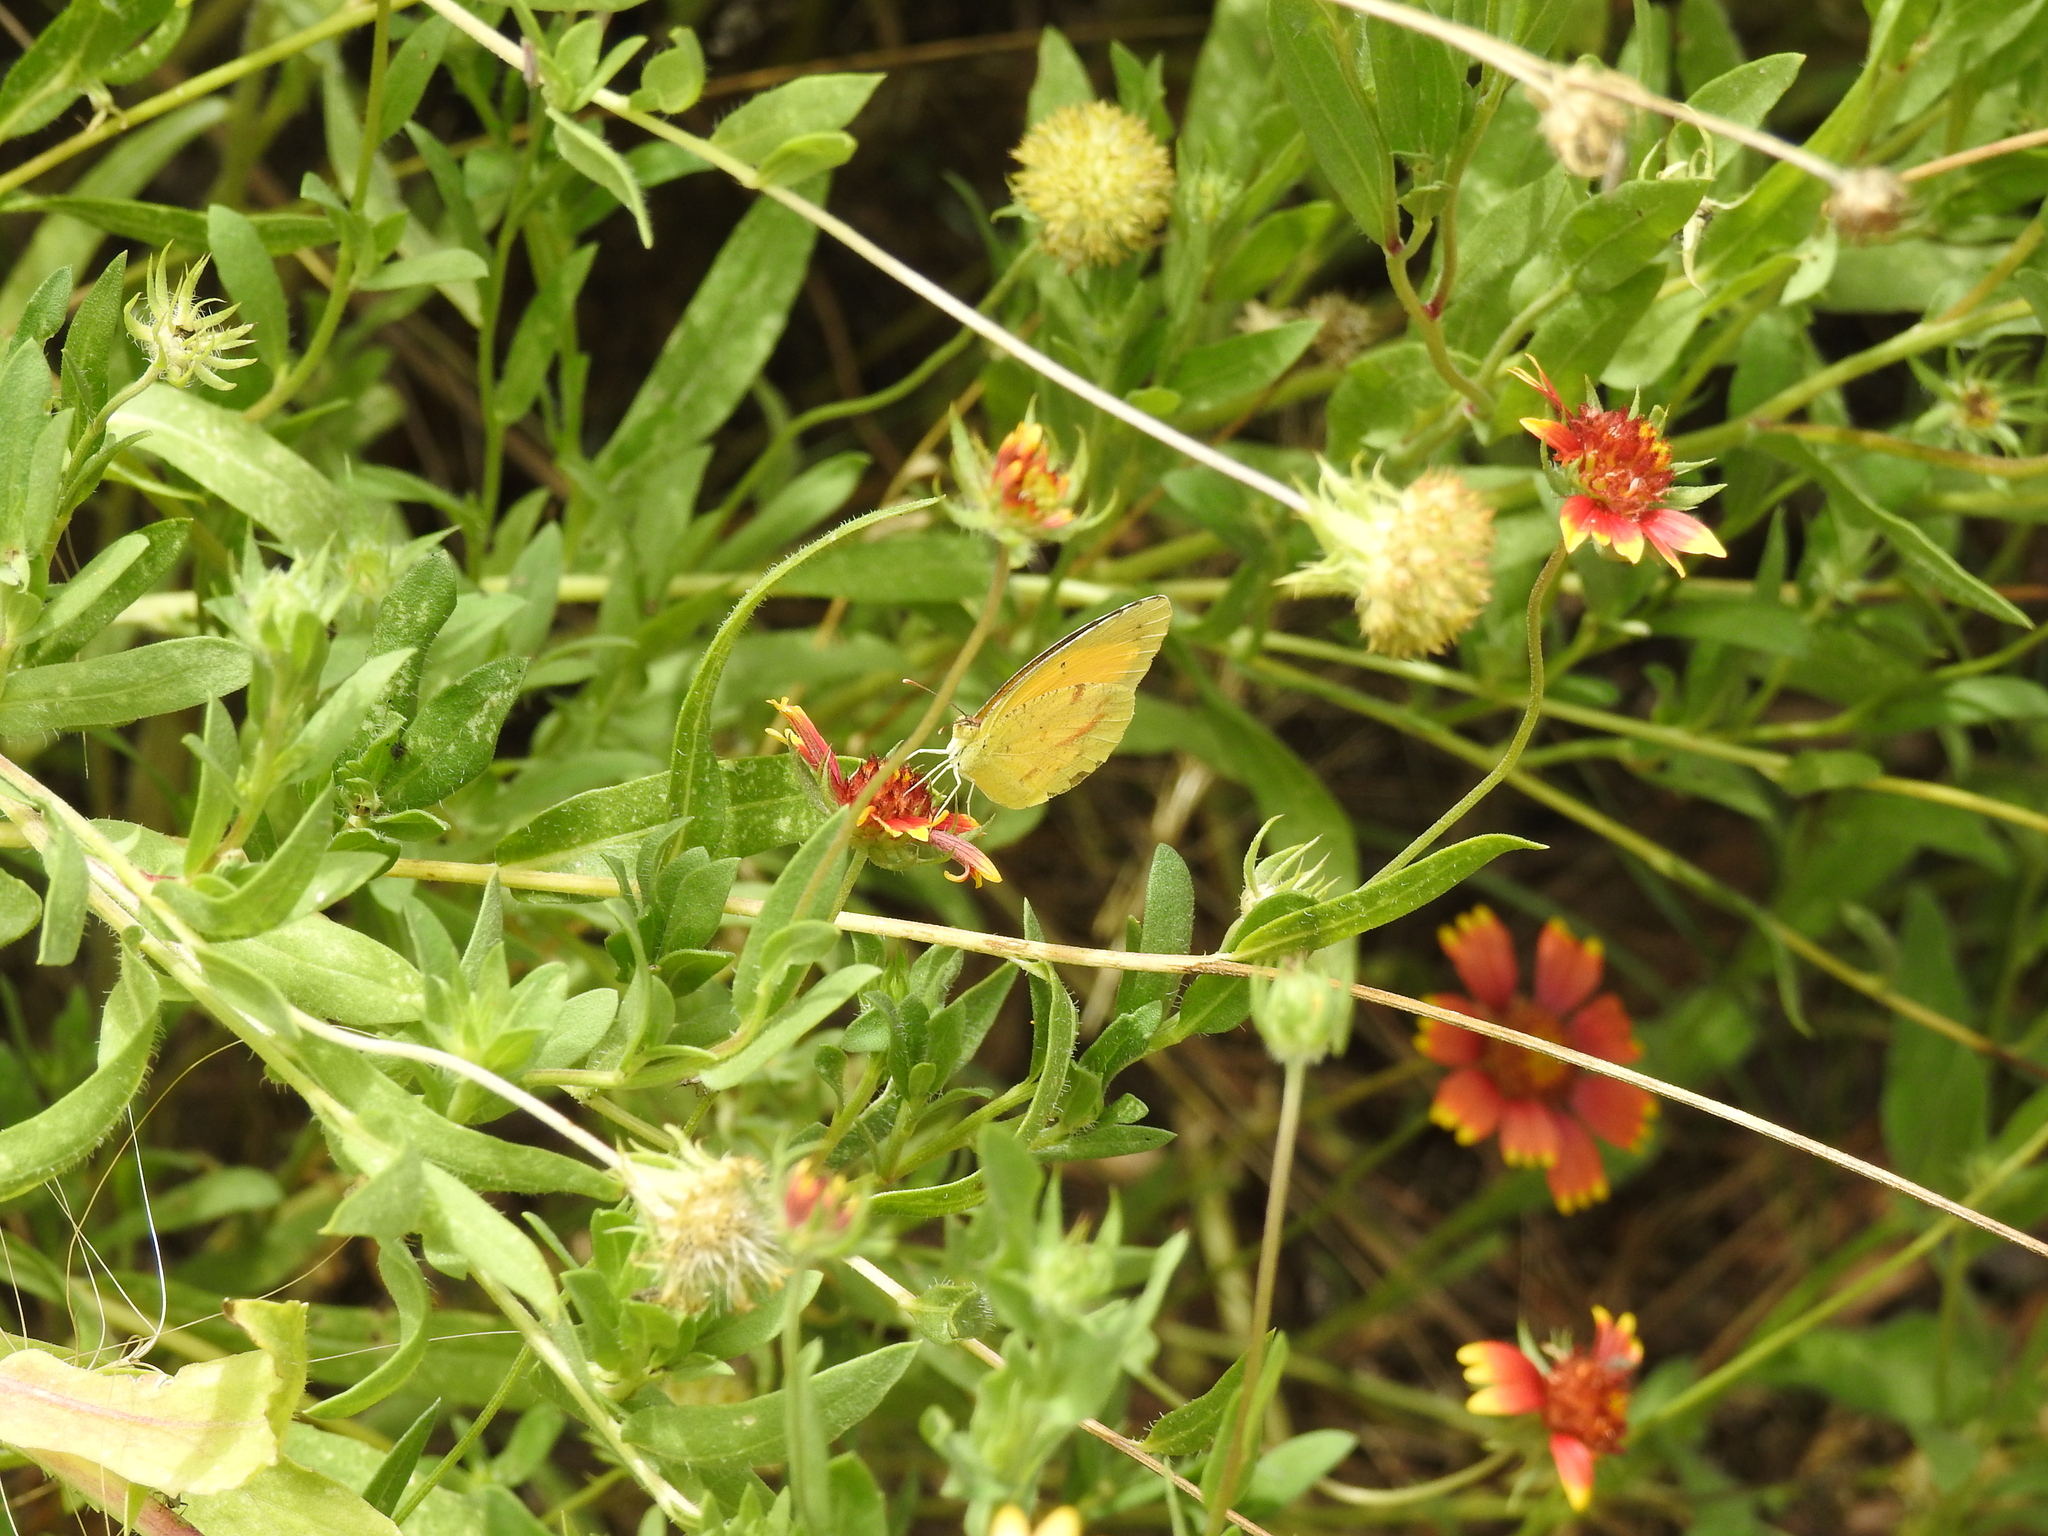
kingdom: Animalia
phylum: Arthropoda
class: Insecta
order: Lepidoptera
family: Pieridae
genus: Abaeis
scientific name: Abaeis nicippe
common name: Sleepy orange
